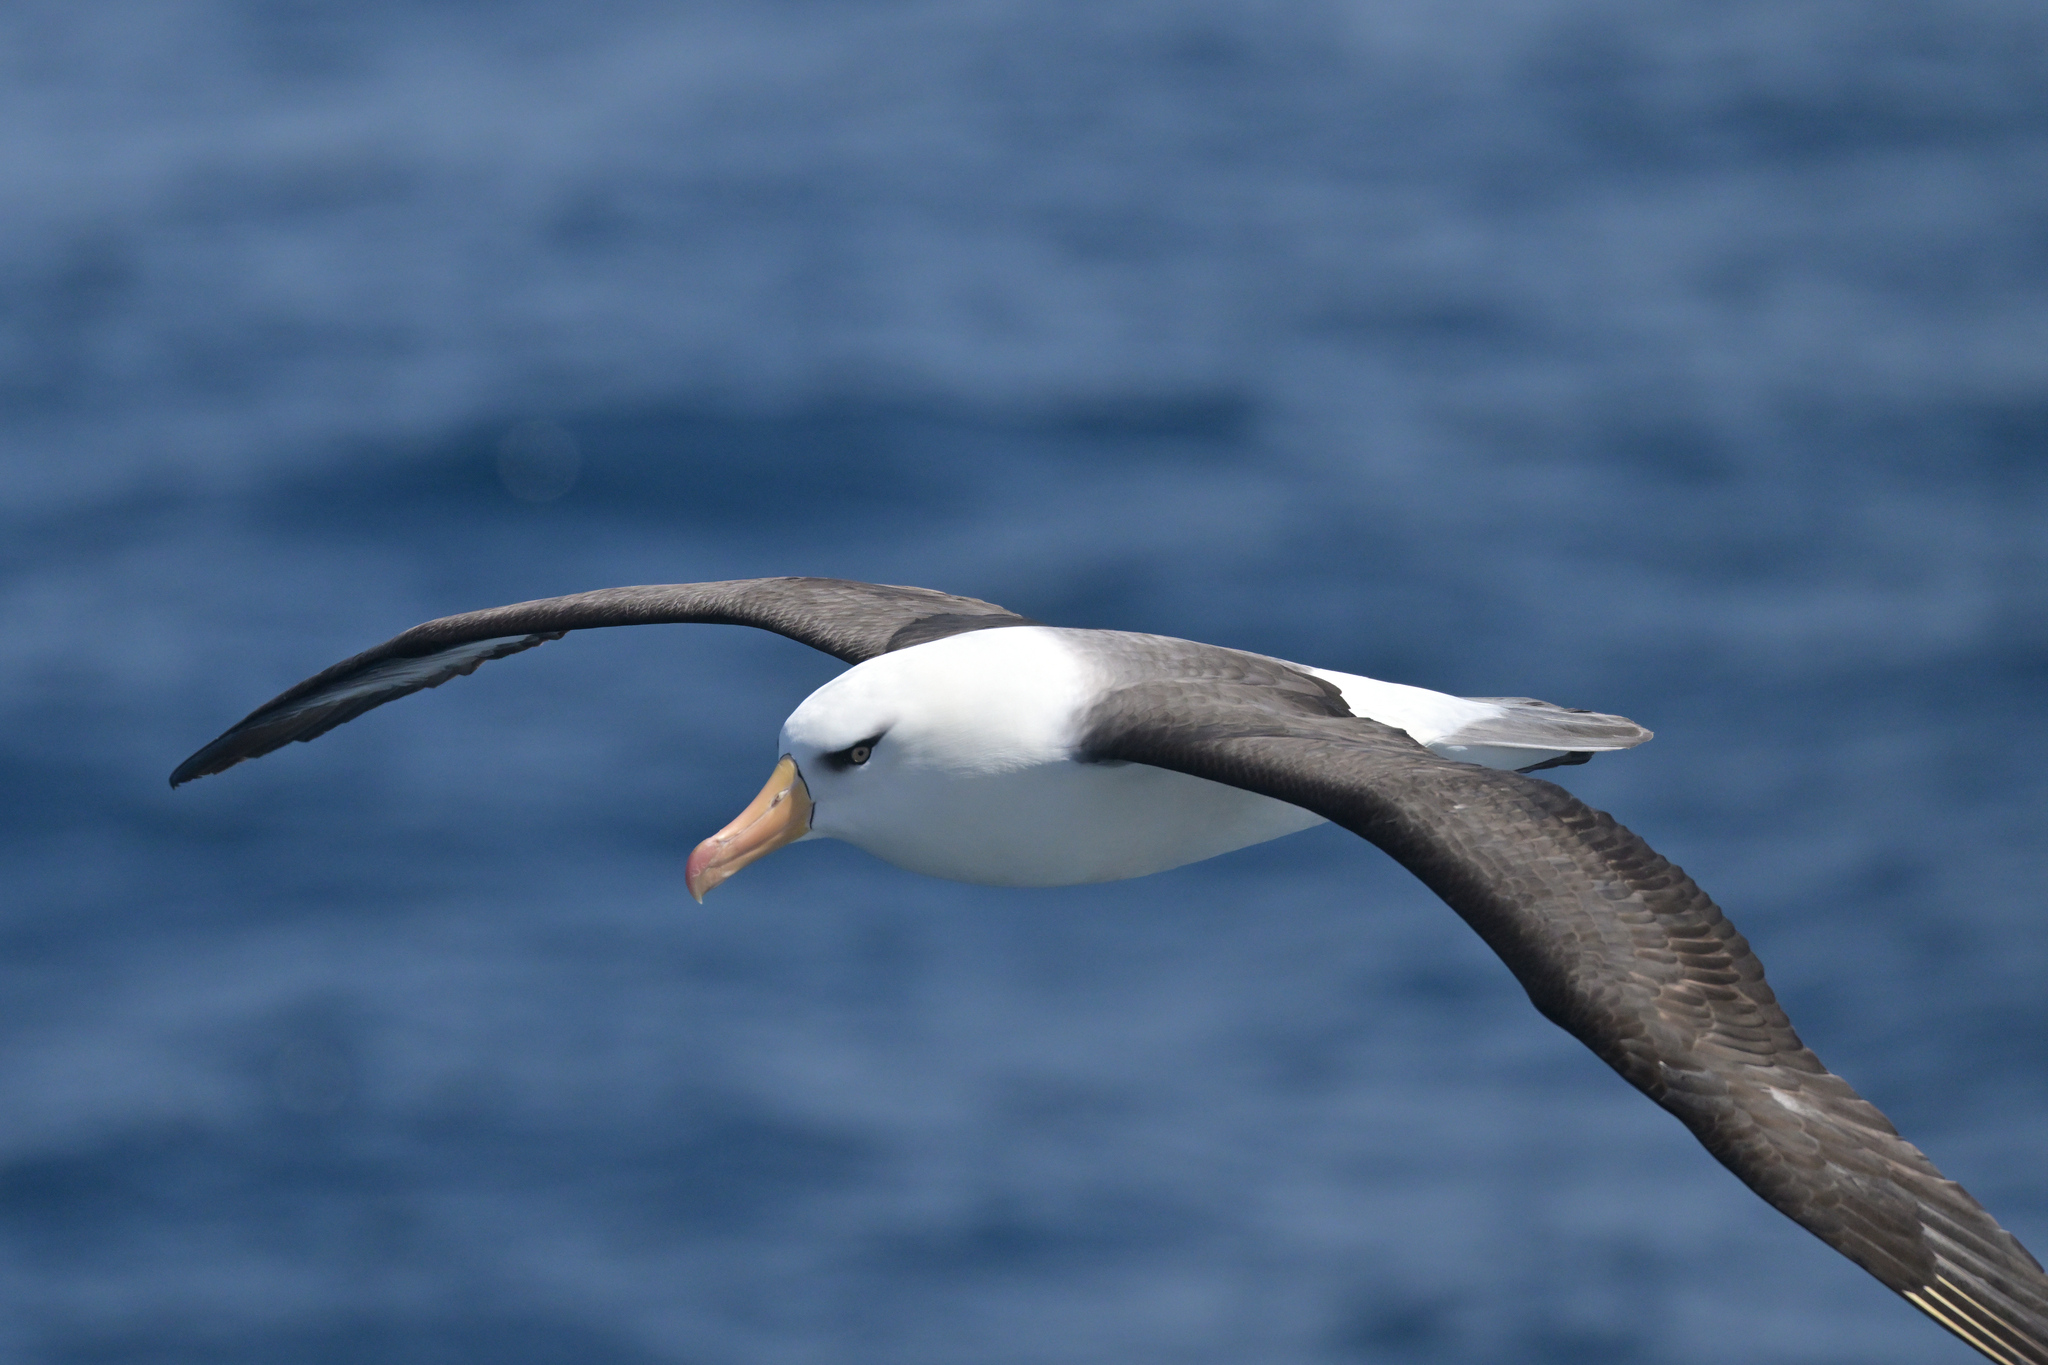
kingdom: Animalia
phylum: Chordata
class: Aves
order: Procellariiformes
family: Diomedeidae
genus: Thalassarche
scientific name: Thalassarche impavida
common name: Campbell albatross
